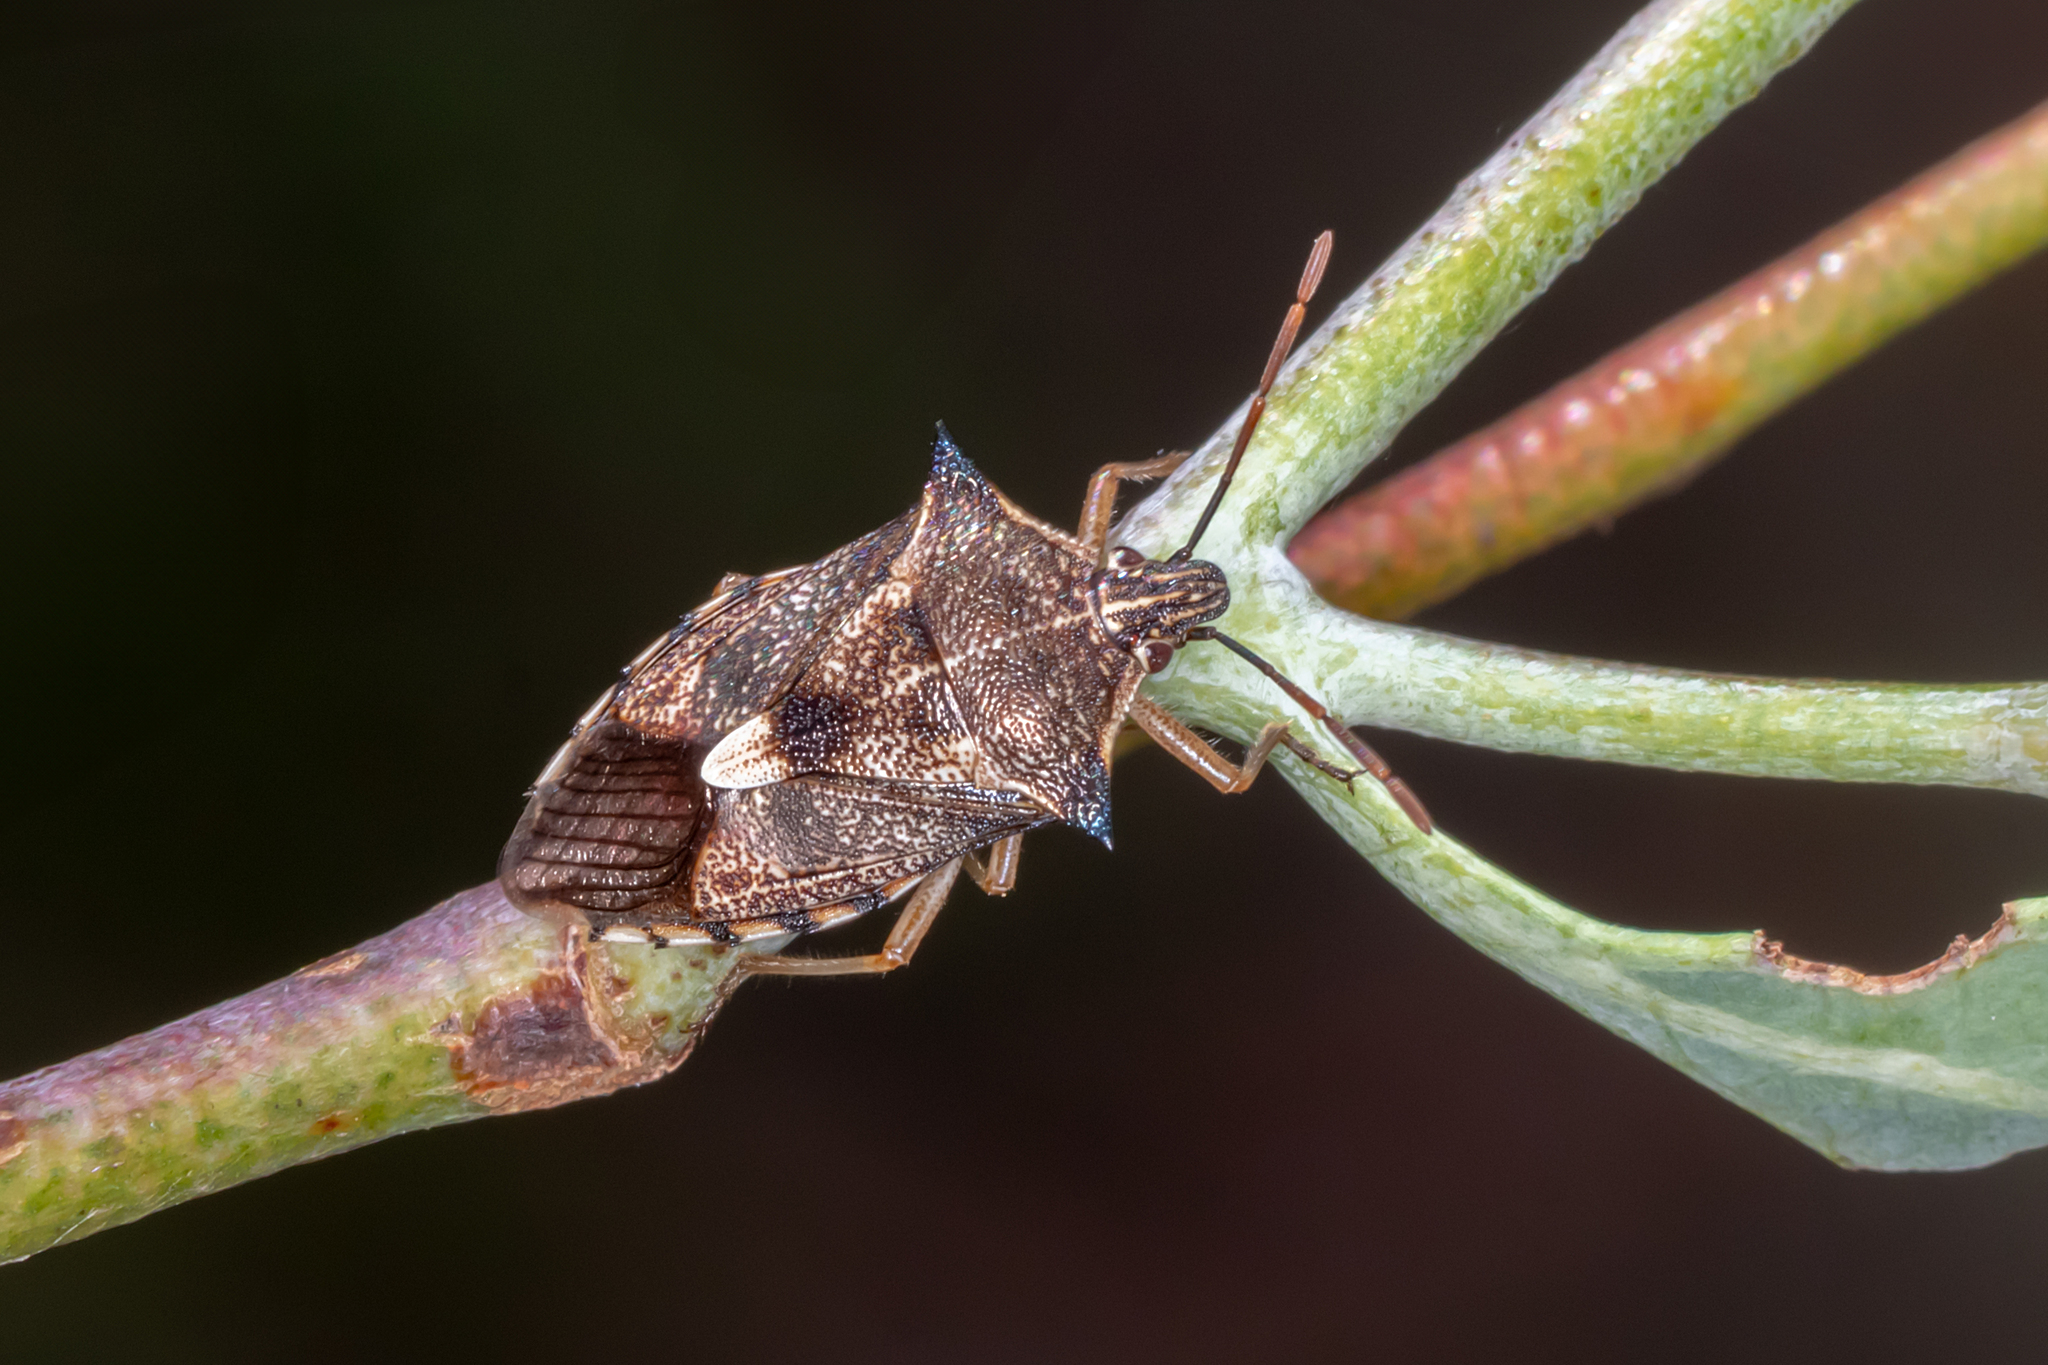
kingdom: Animalia
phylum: Arthropoda
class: Insecta
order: Hemiptera
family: Pentatomidae
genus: Oechalia
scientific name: Oechalia schellenbergii
